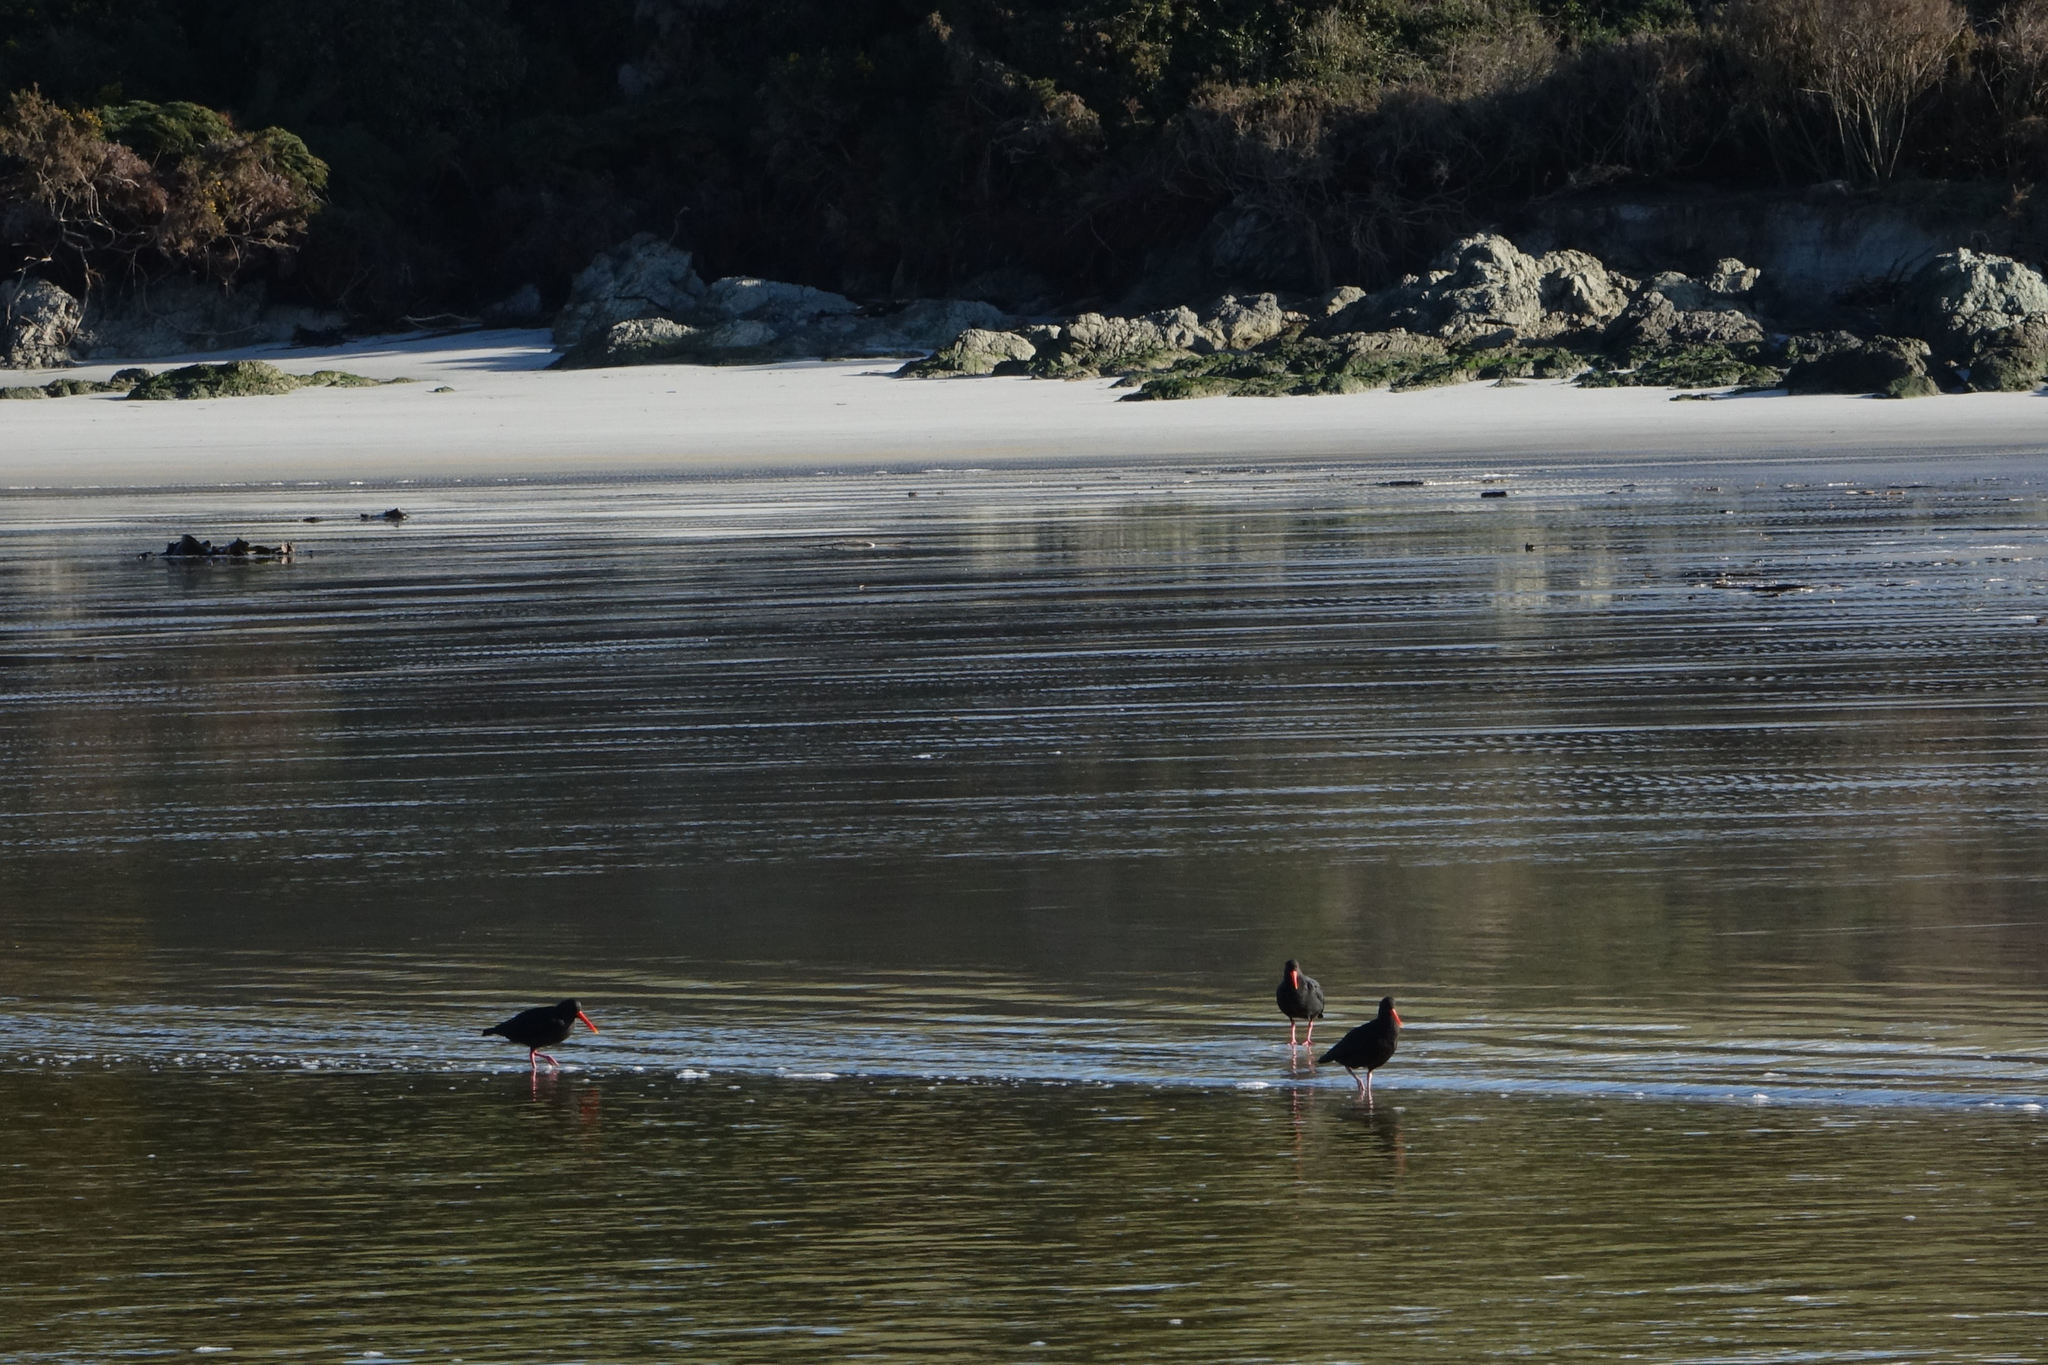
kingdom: Animalia
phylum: Chordata
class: Aves
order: Charadriiformes
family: Haematopodidae
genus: Haematopus
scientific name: Haematopus unicolor
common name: Variable oystercatcher
